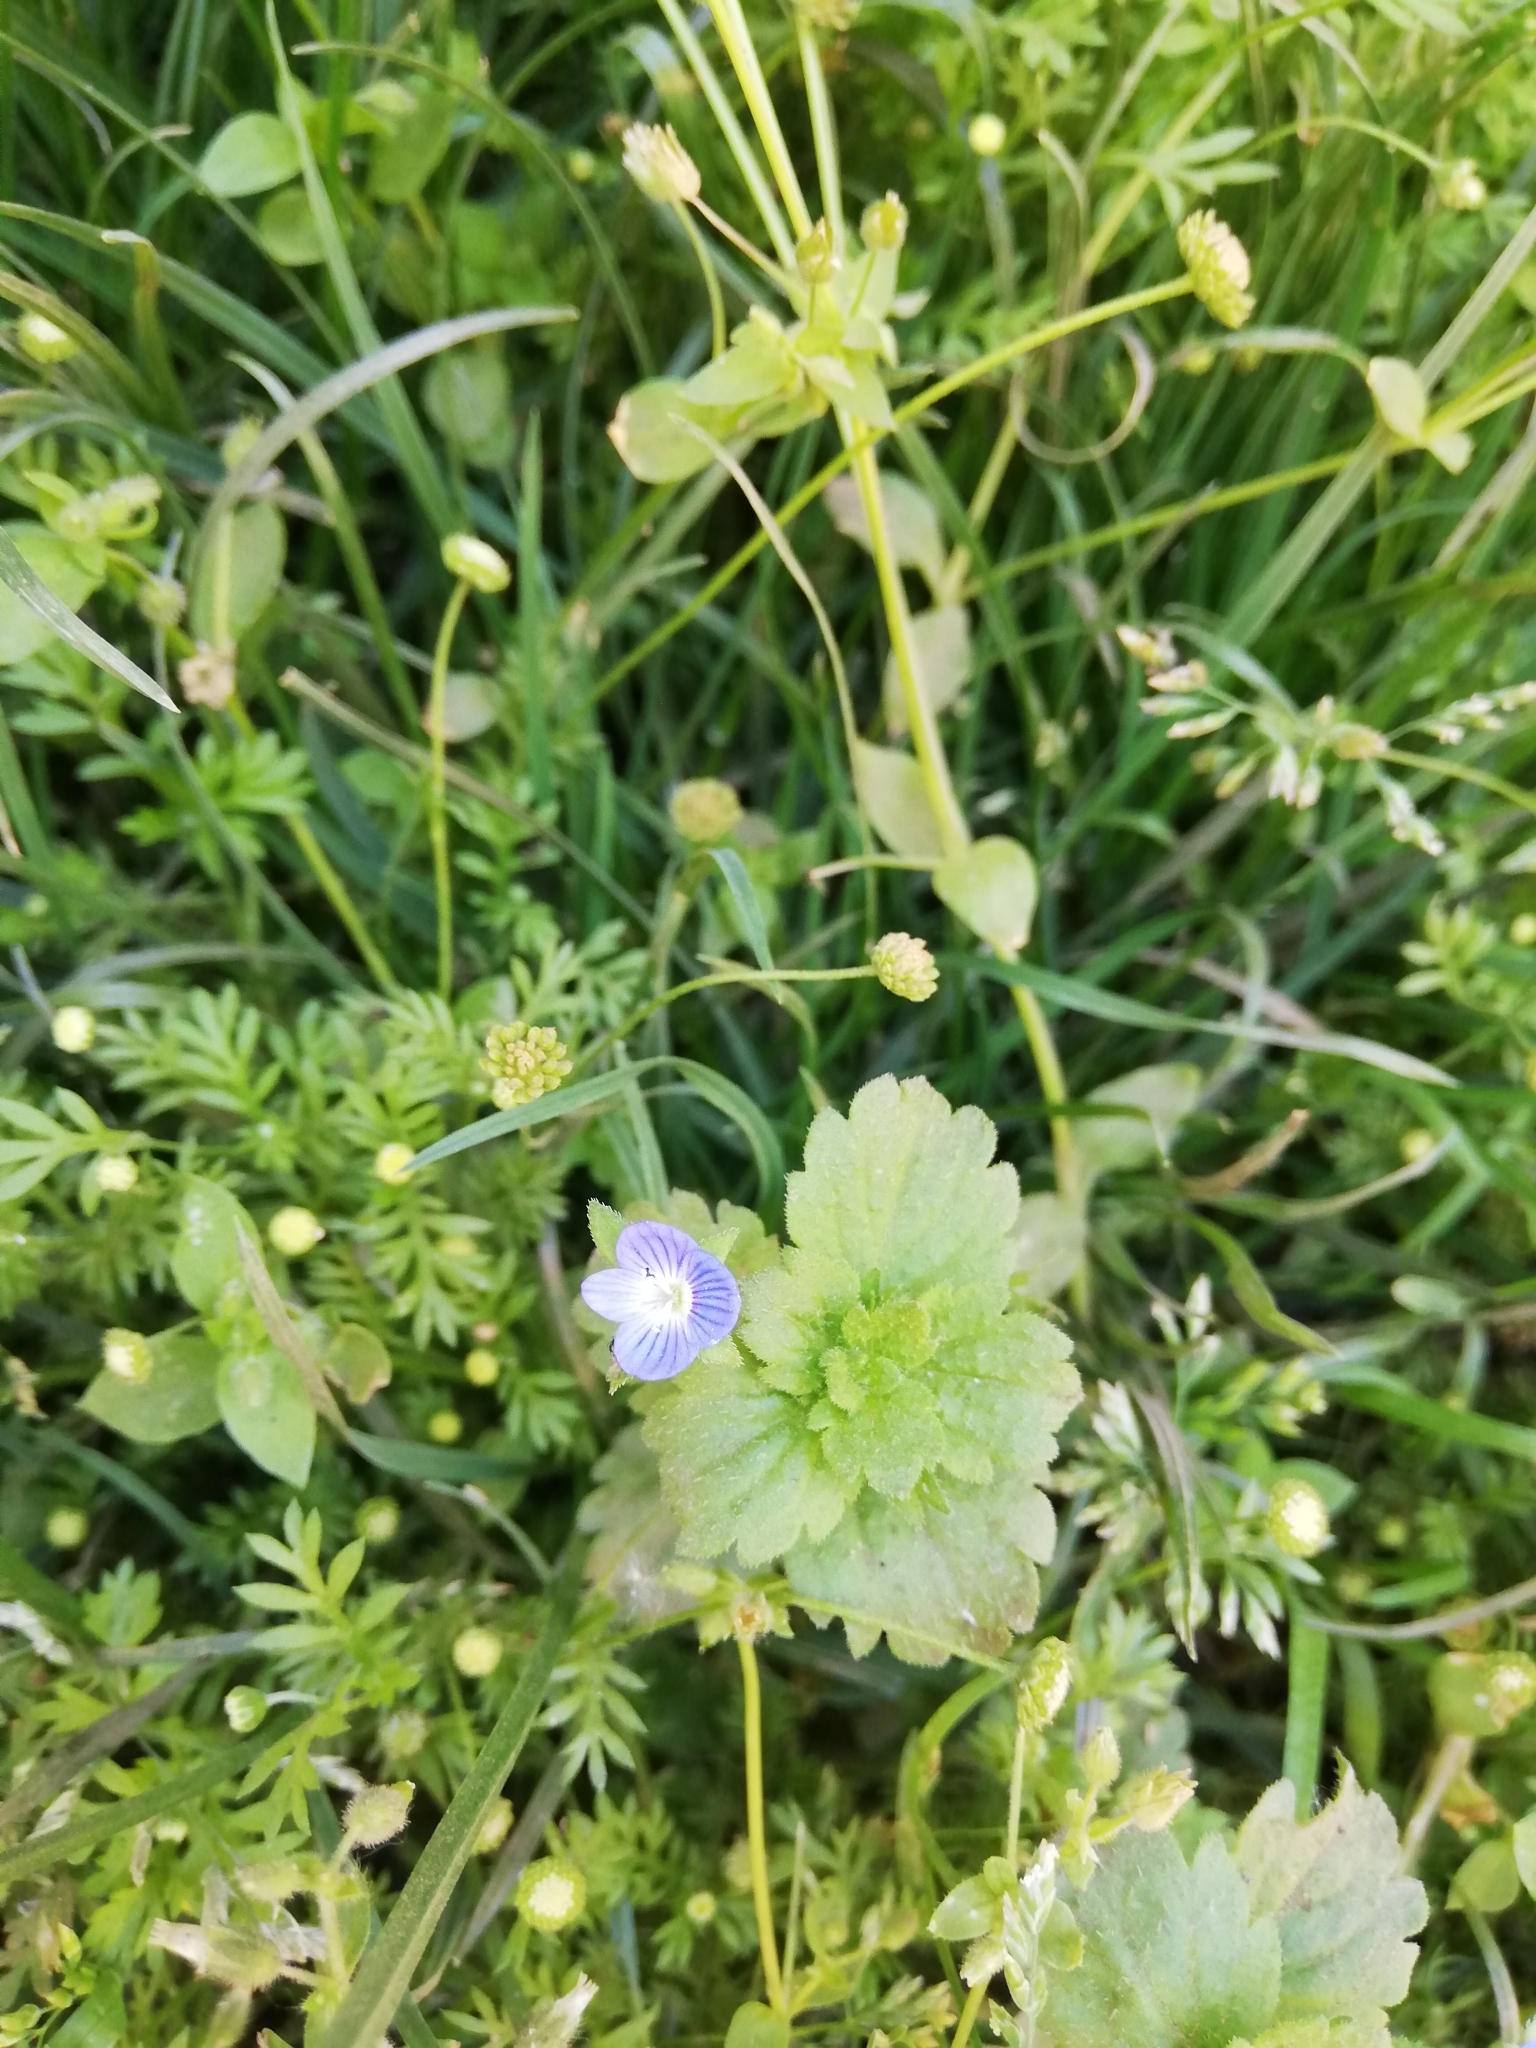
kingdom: Plantae
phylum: Tracheophyta
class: Magnoliopsida
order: Lamiales
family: Plantaginaceae
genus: Veronica
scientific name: Veronica persica
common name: Common field-speedwell
